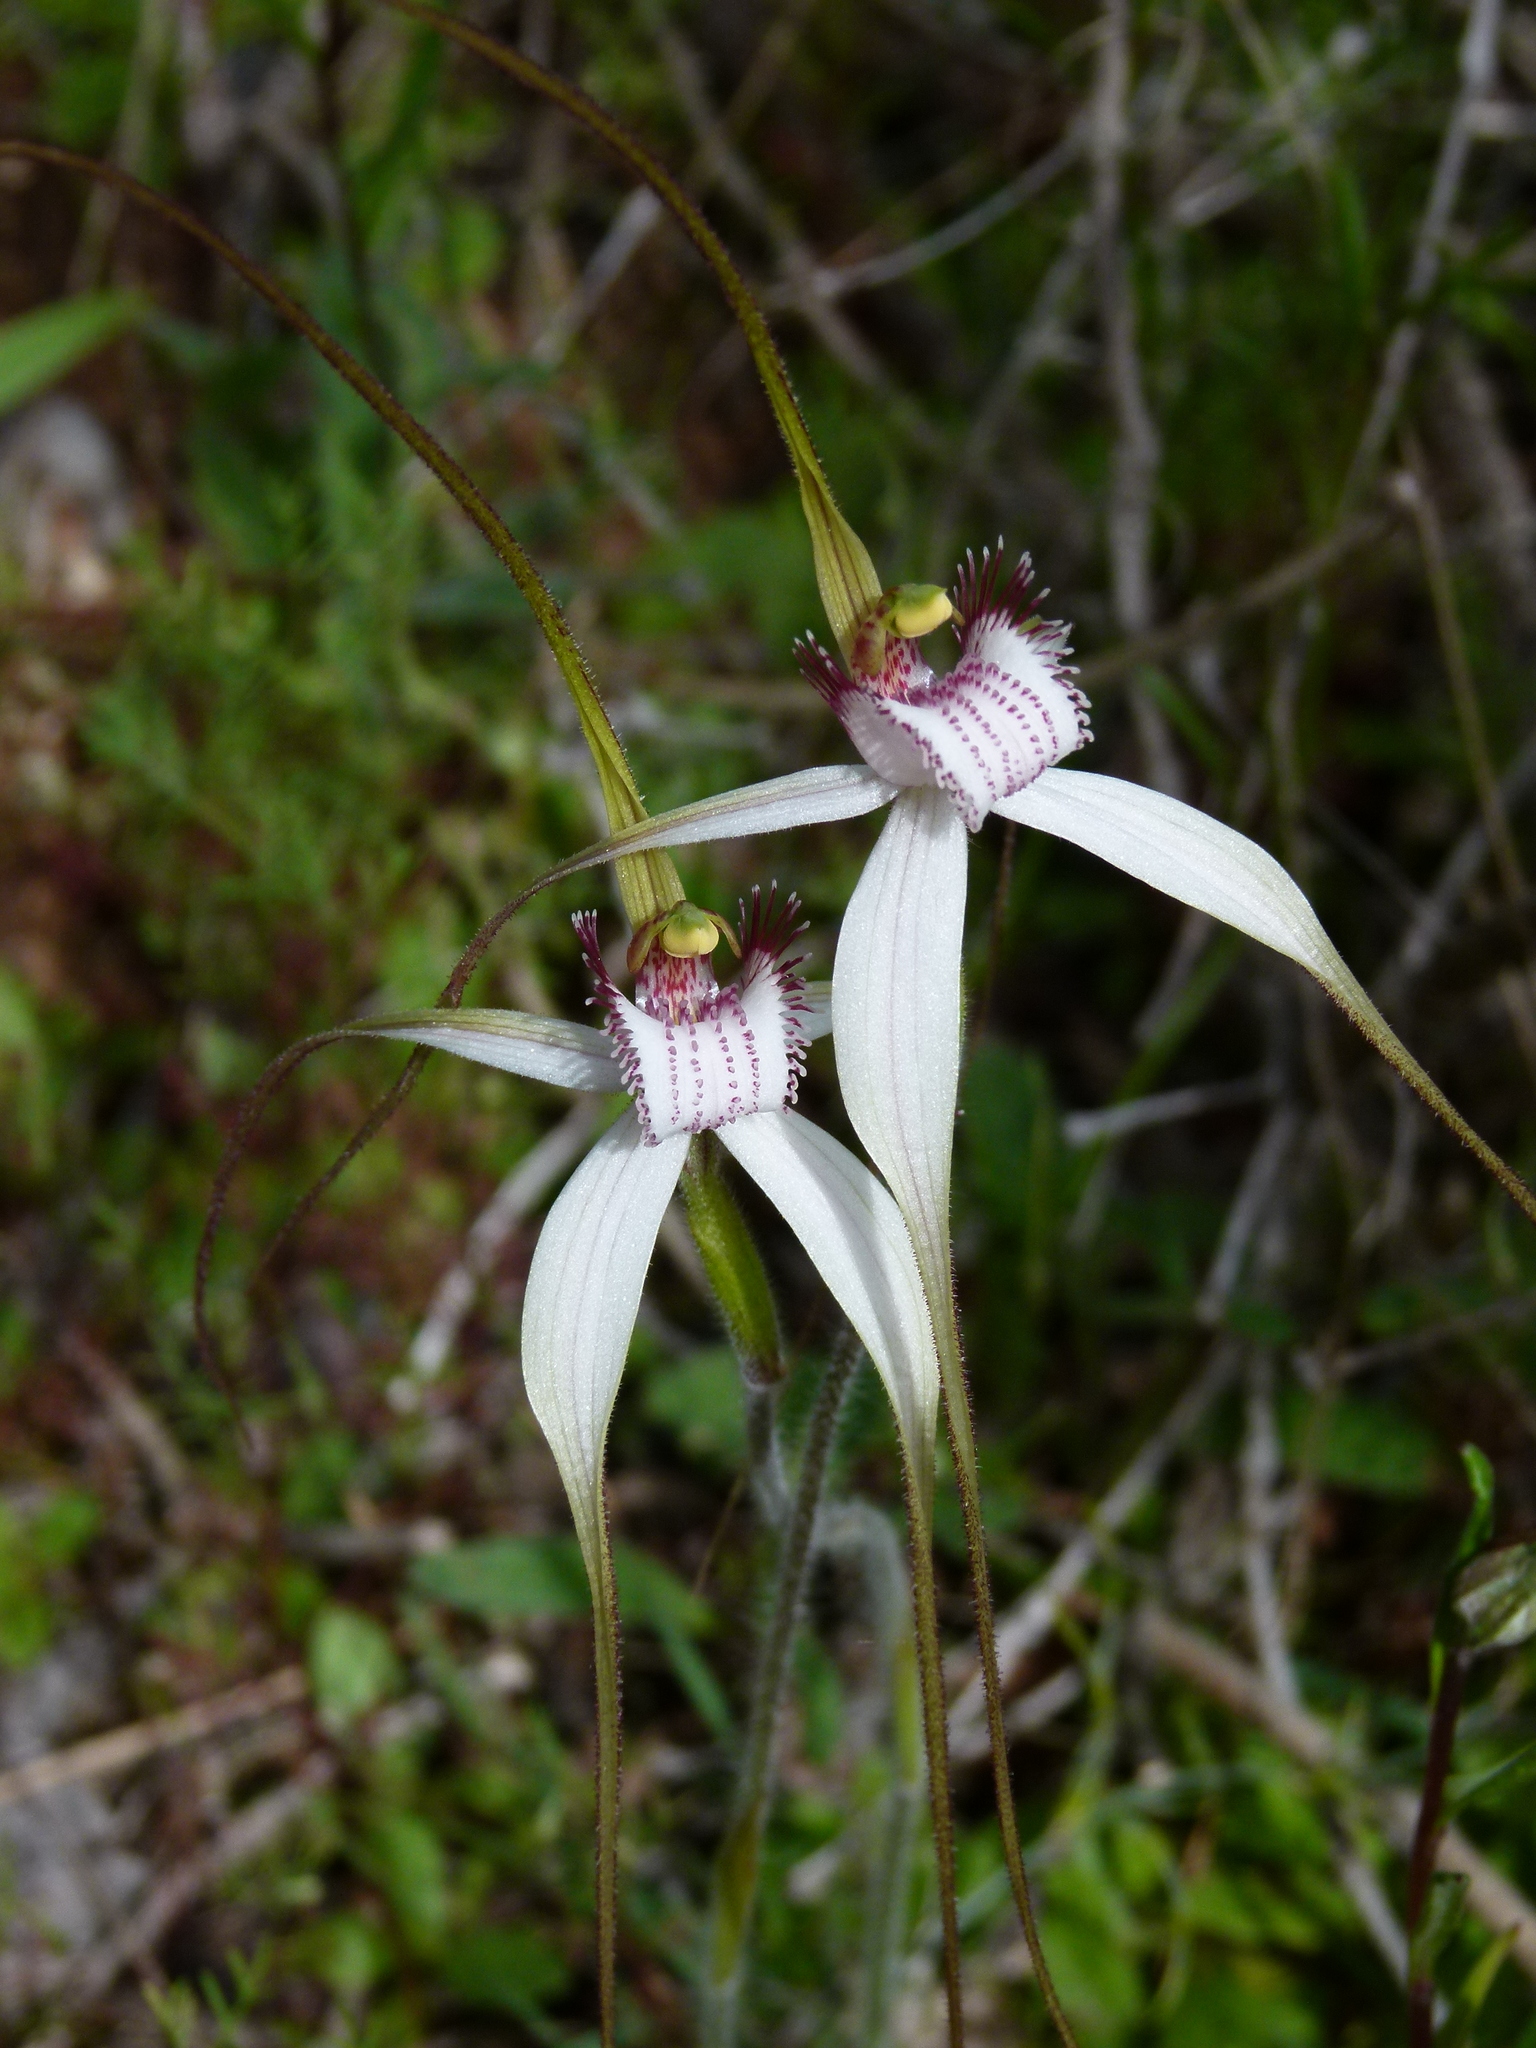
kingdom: Plantae
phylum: Tracheophyta
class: Liliopsida
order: Asparagales
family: Orchidaceae
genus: Caladenia
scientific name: Caladenia longicauda
